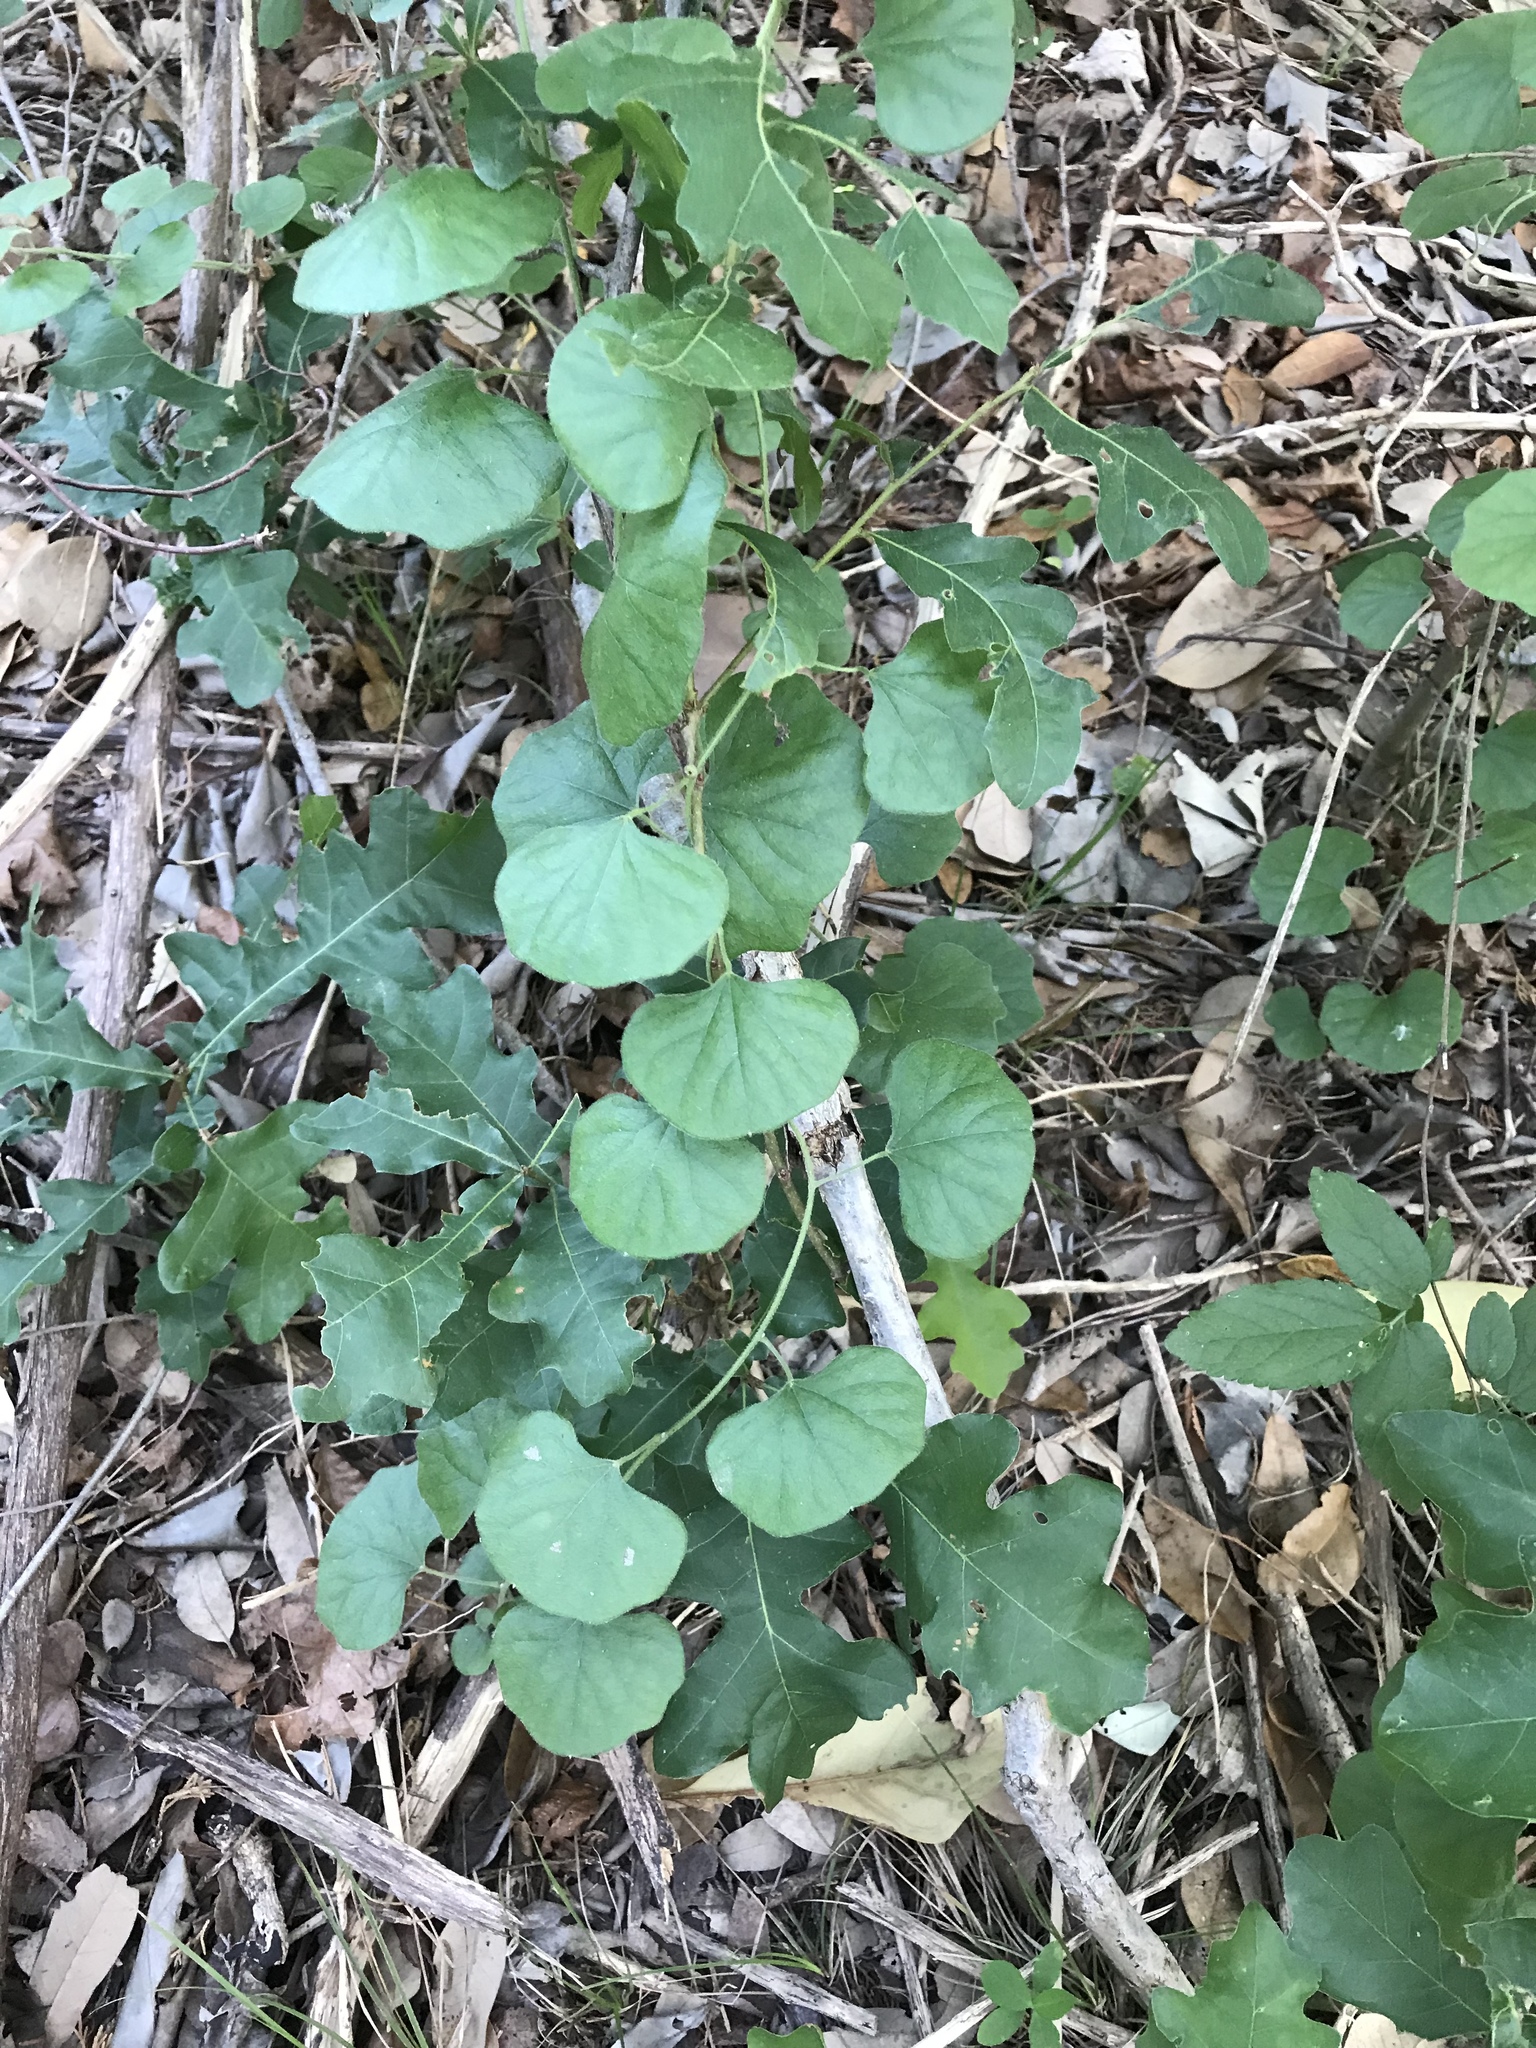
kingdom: Plantae
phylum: Tracheophyta
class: Magnoliopsida
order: Ranunculales
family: Menispermaceae
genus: Cocculus
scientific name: Cocculus carolinus
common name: Carolina moonseed
